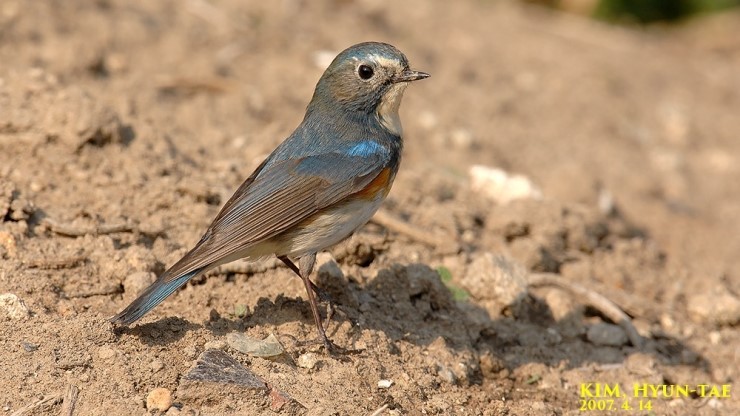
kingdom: Animalia
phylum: Chordata
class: Aves
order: Passeriformes
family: Muscicapidae
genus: Tarsiger
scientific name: Tarsiger cyanurus
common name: Red-flanked bluetail
